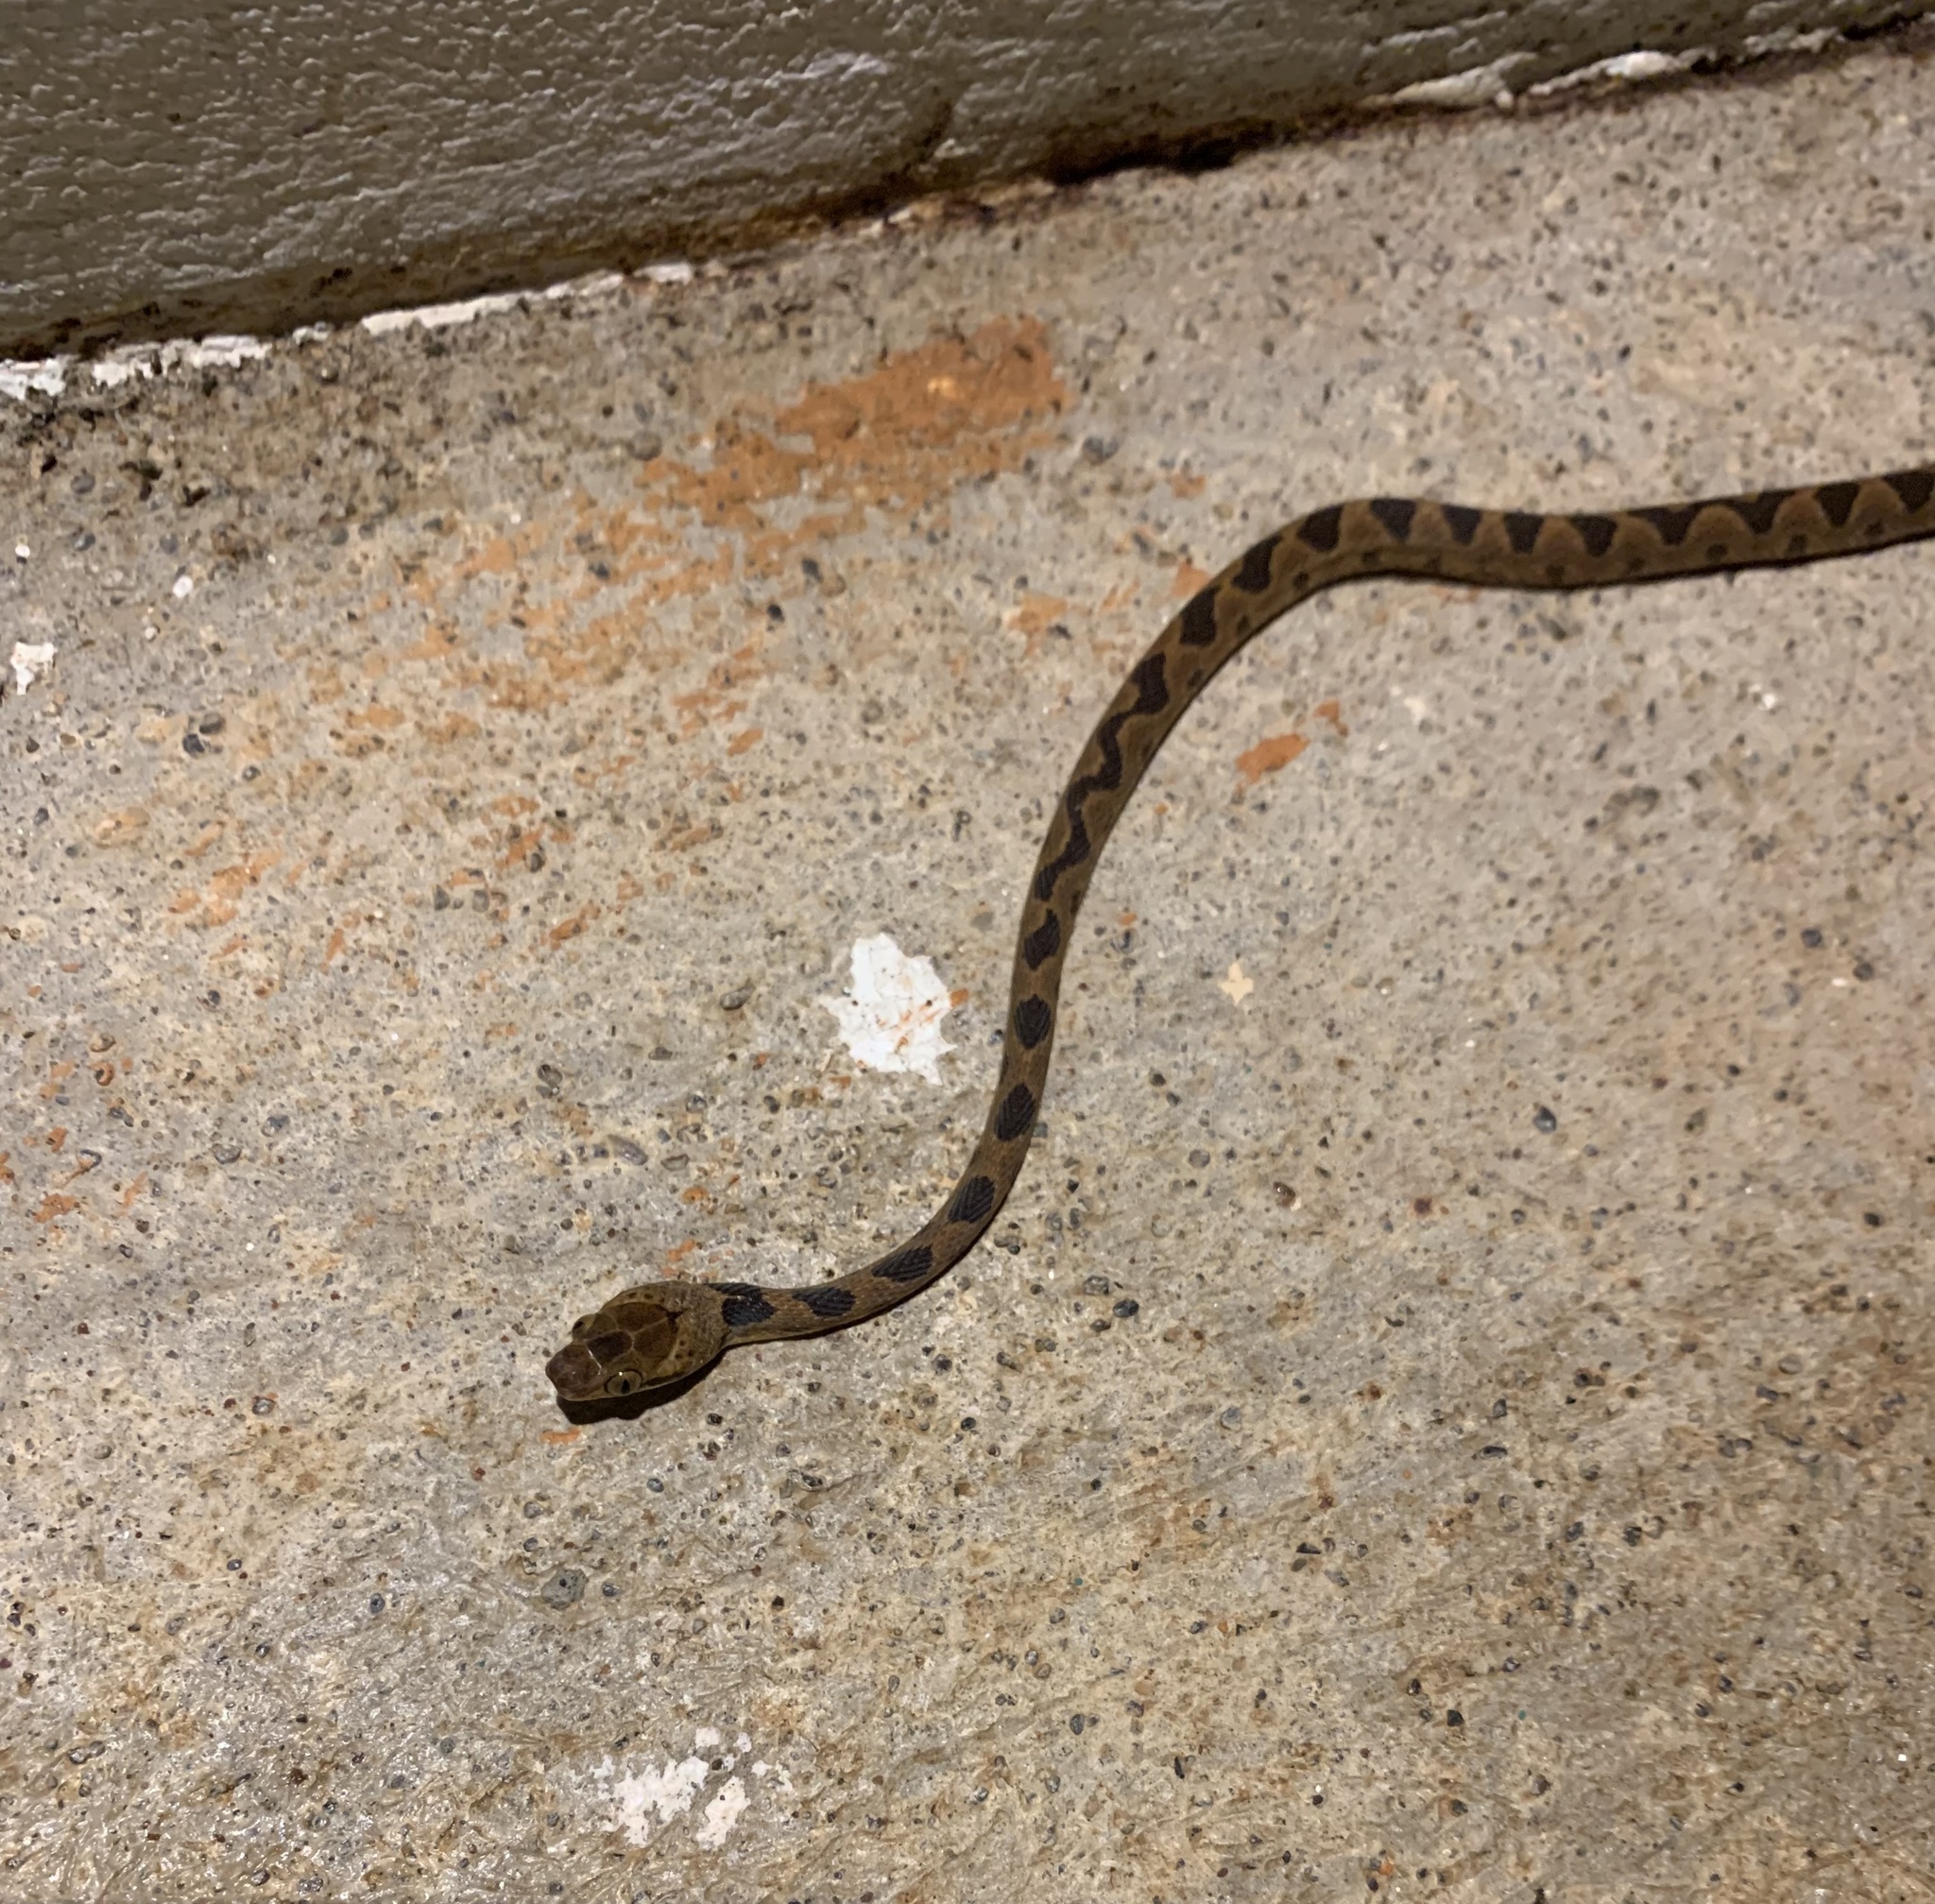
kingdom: Animalia
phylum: Chordata
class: Squamata
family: Colubridae
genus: Leptodeira
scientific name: Leptodeira ornata
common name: Northern cat-eyed snake
